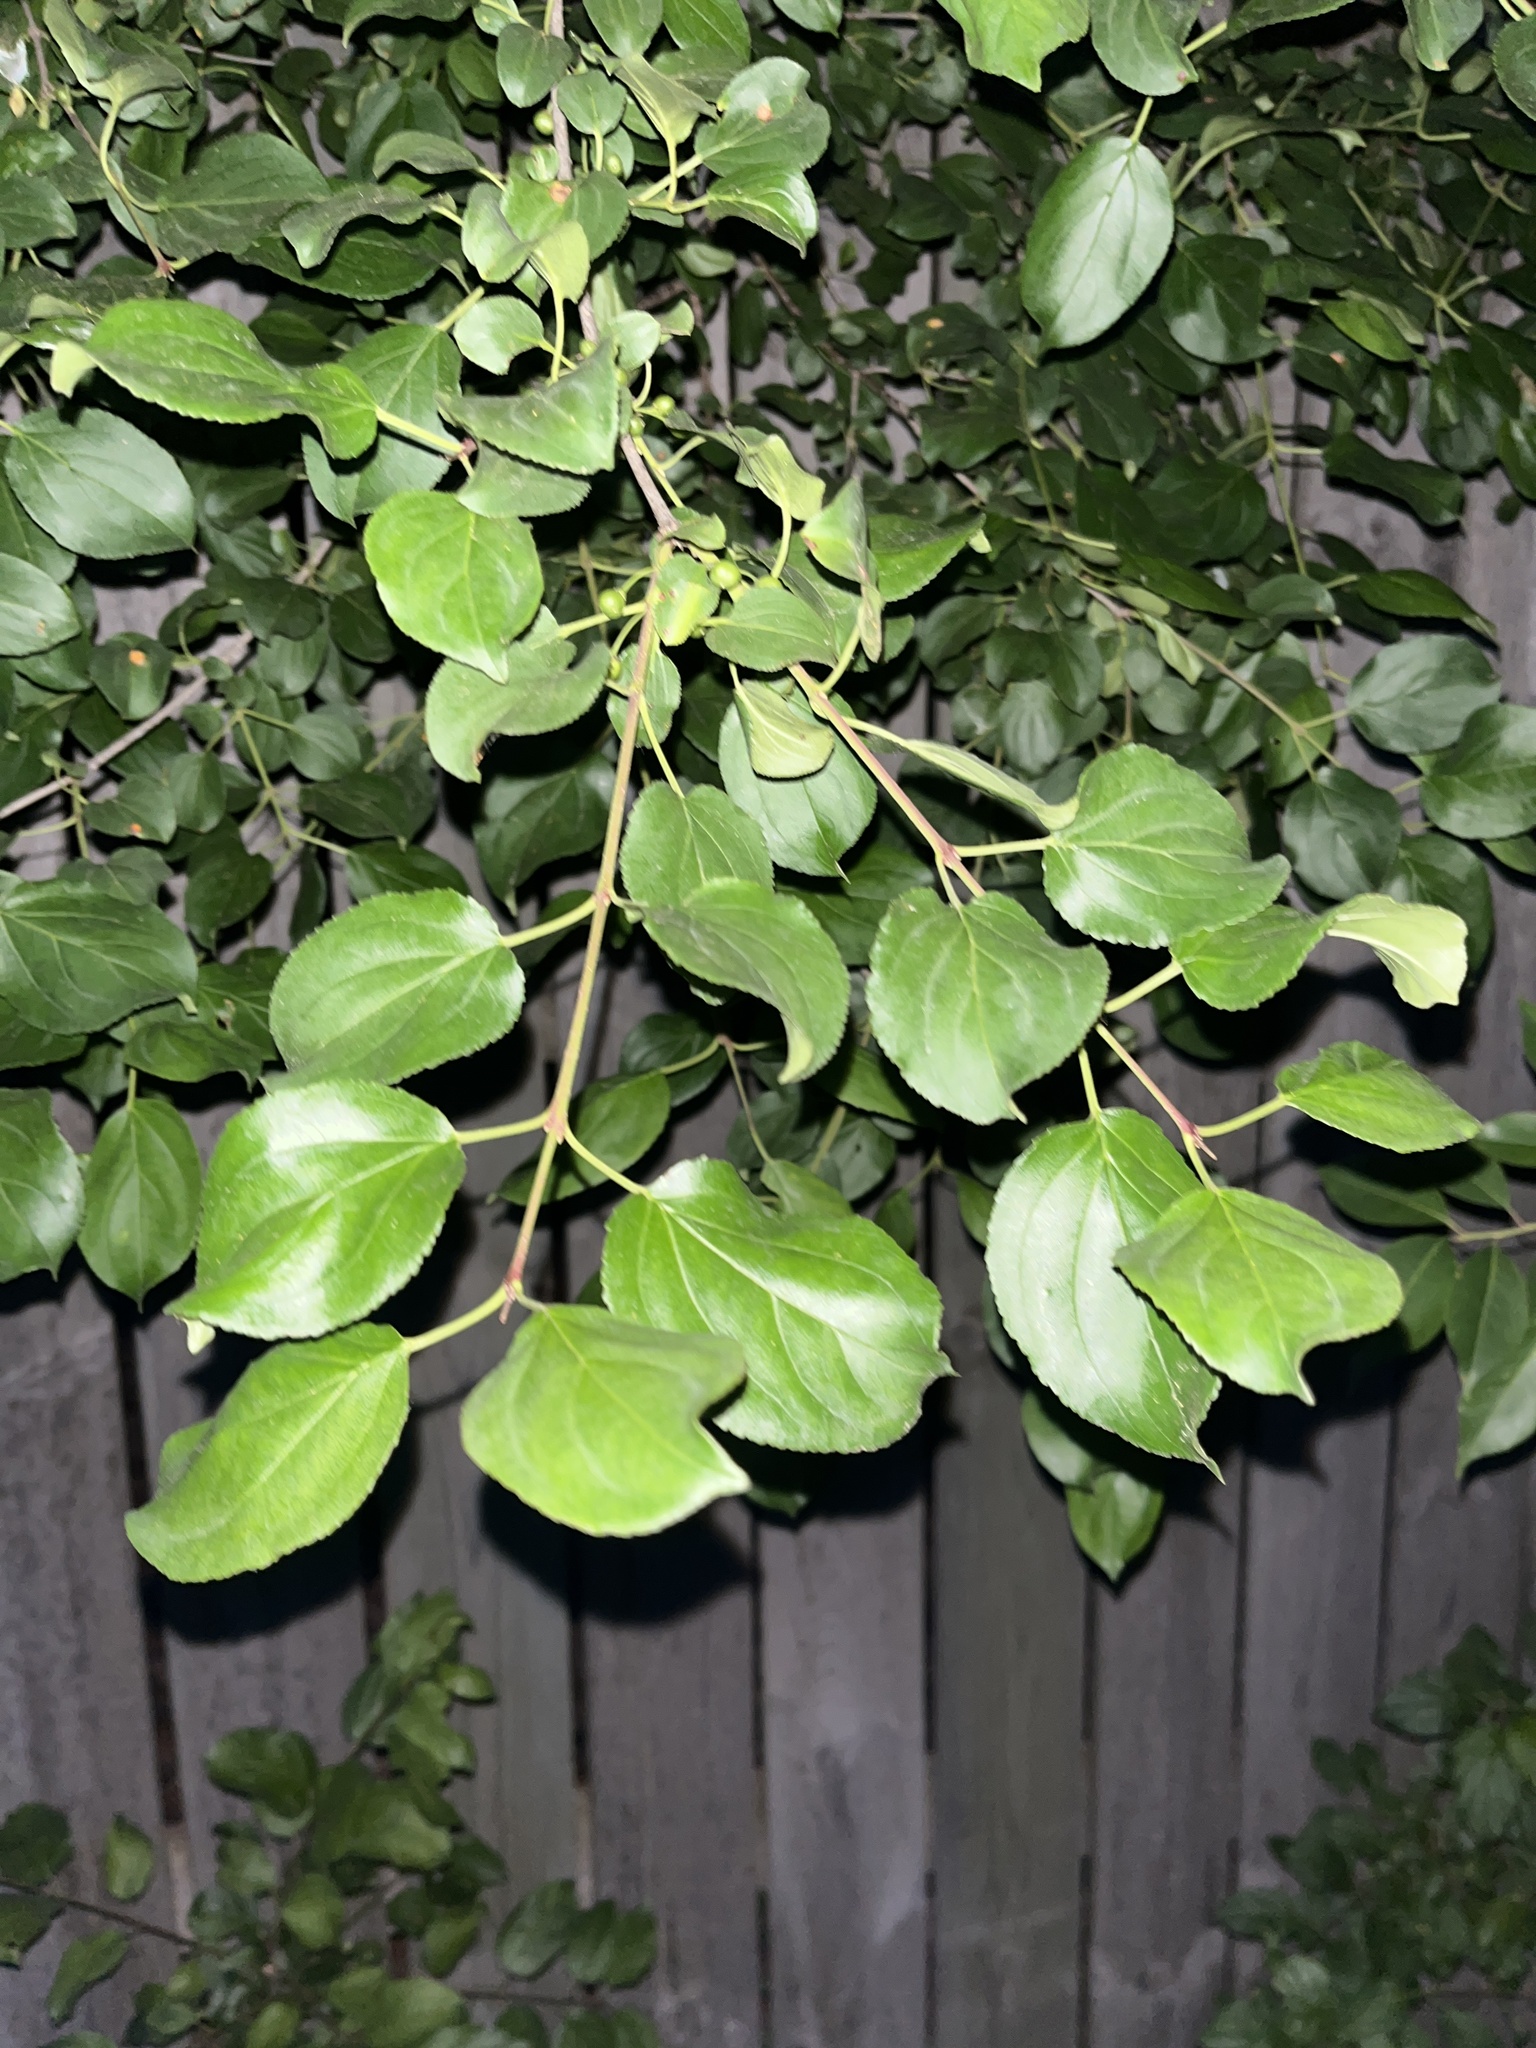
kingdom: Plantae
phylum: Tracheophyta
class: Magnoliopsida
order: Rosales
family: Rhamnaceae
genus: Rhamnus
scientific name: Rhamnus cathartica
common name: Common buckthorn
